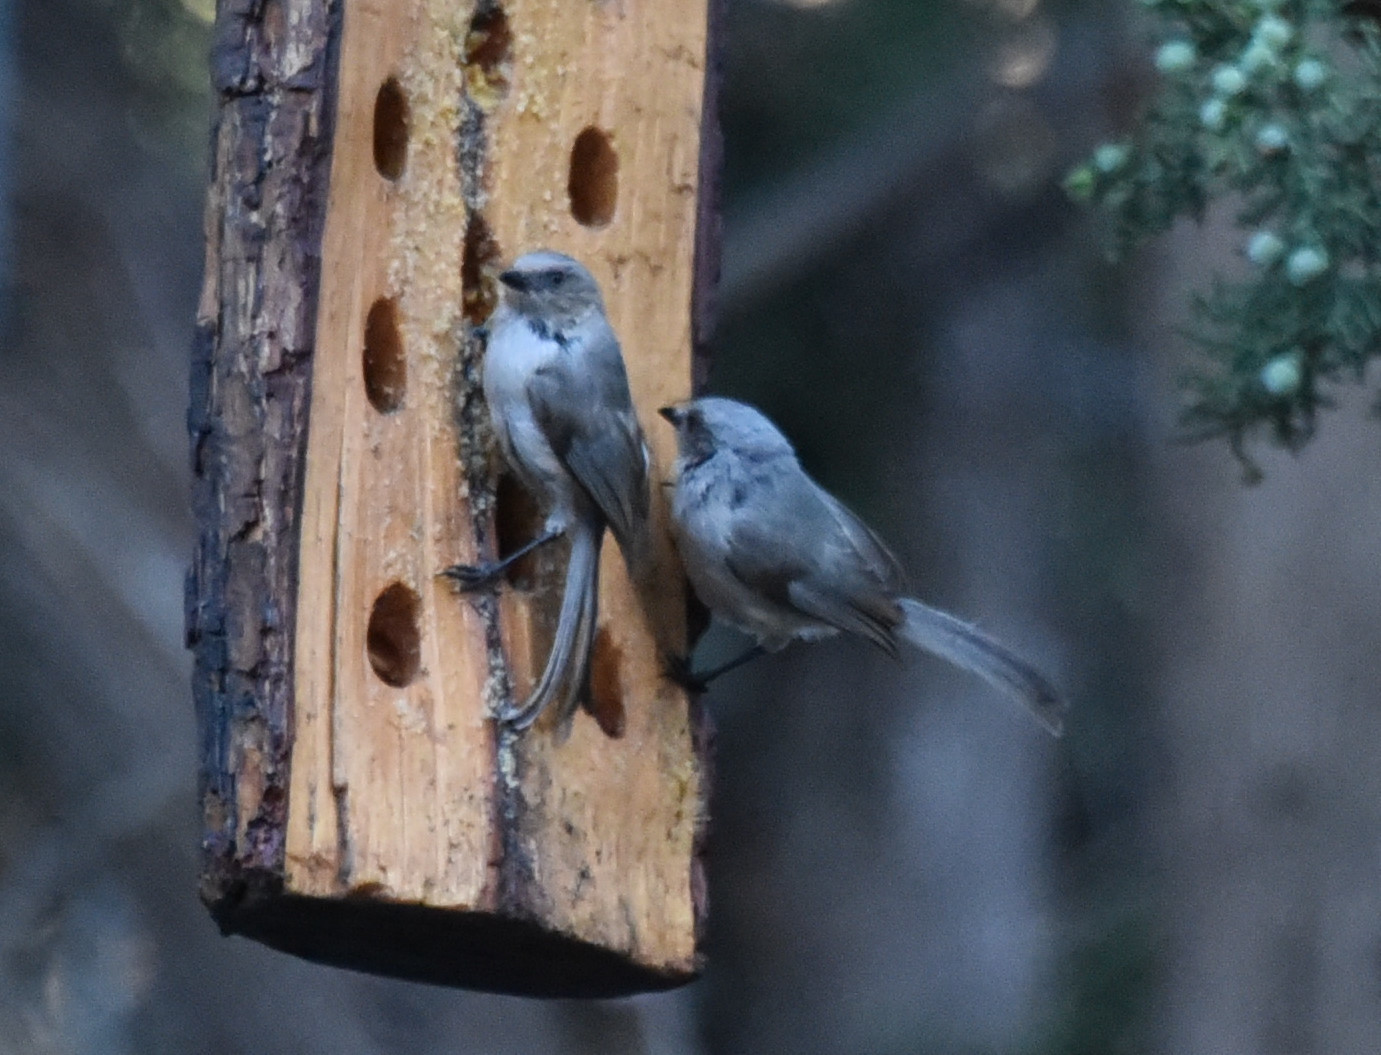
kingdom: Animalia
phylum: Chordata
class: Aves
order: Passeriformes
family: Aegithalidae
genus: Psaltriparus
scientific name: Psaltriparus minimus
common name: American bushtit
